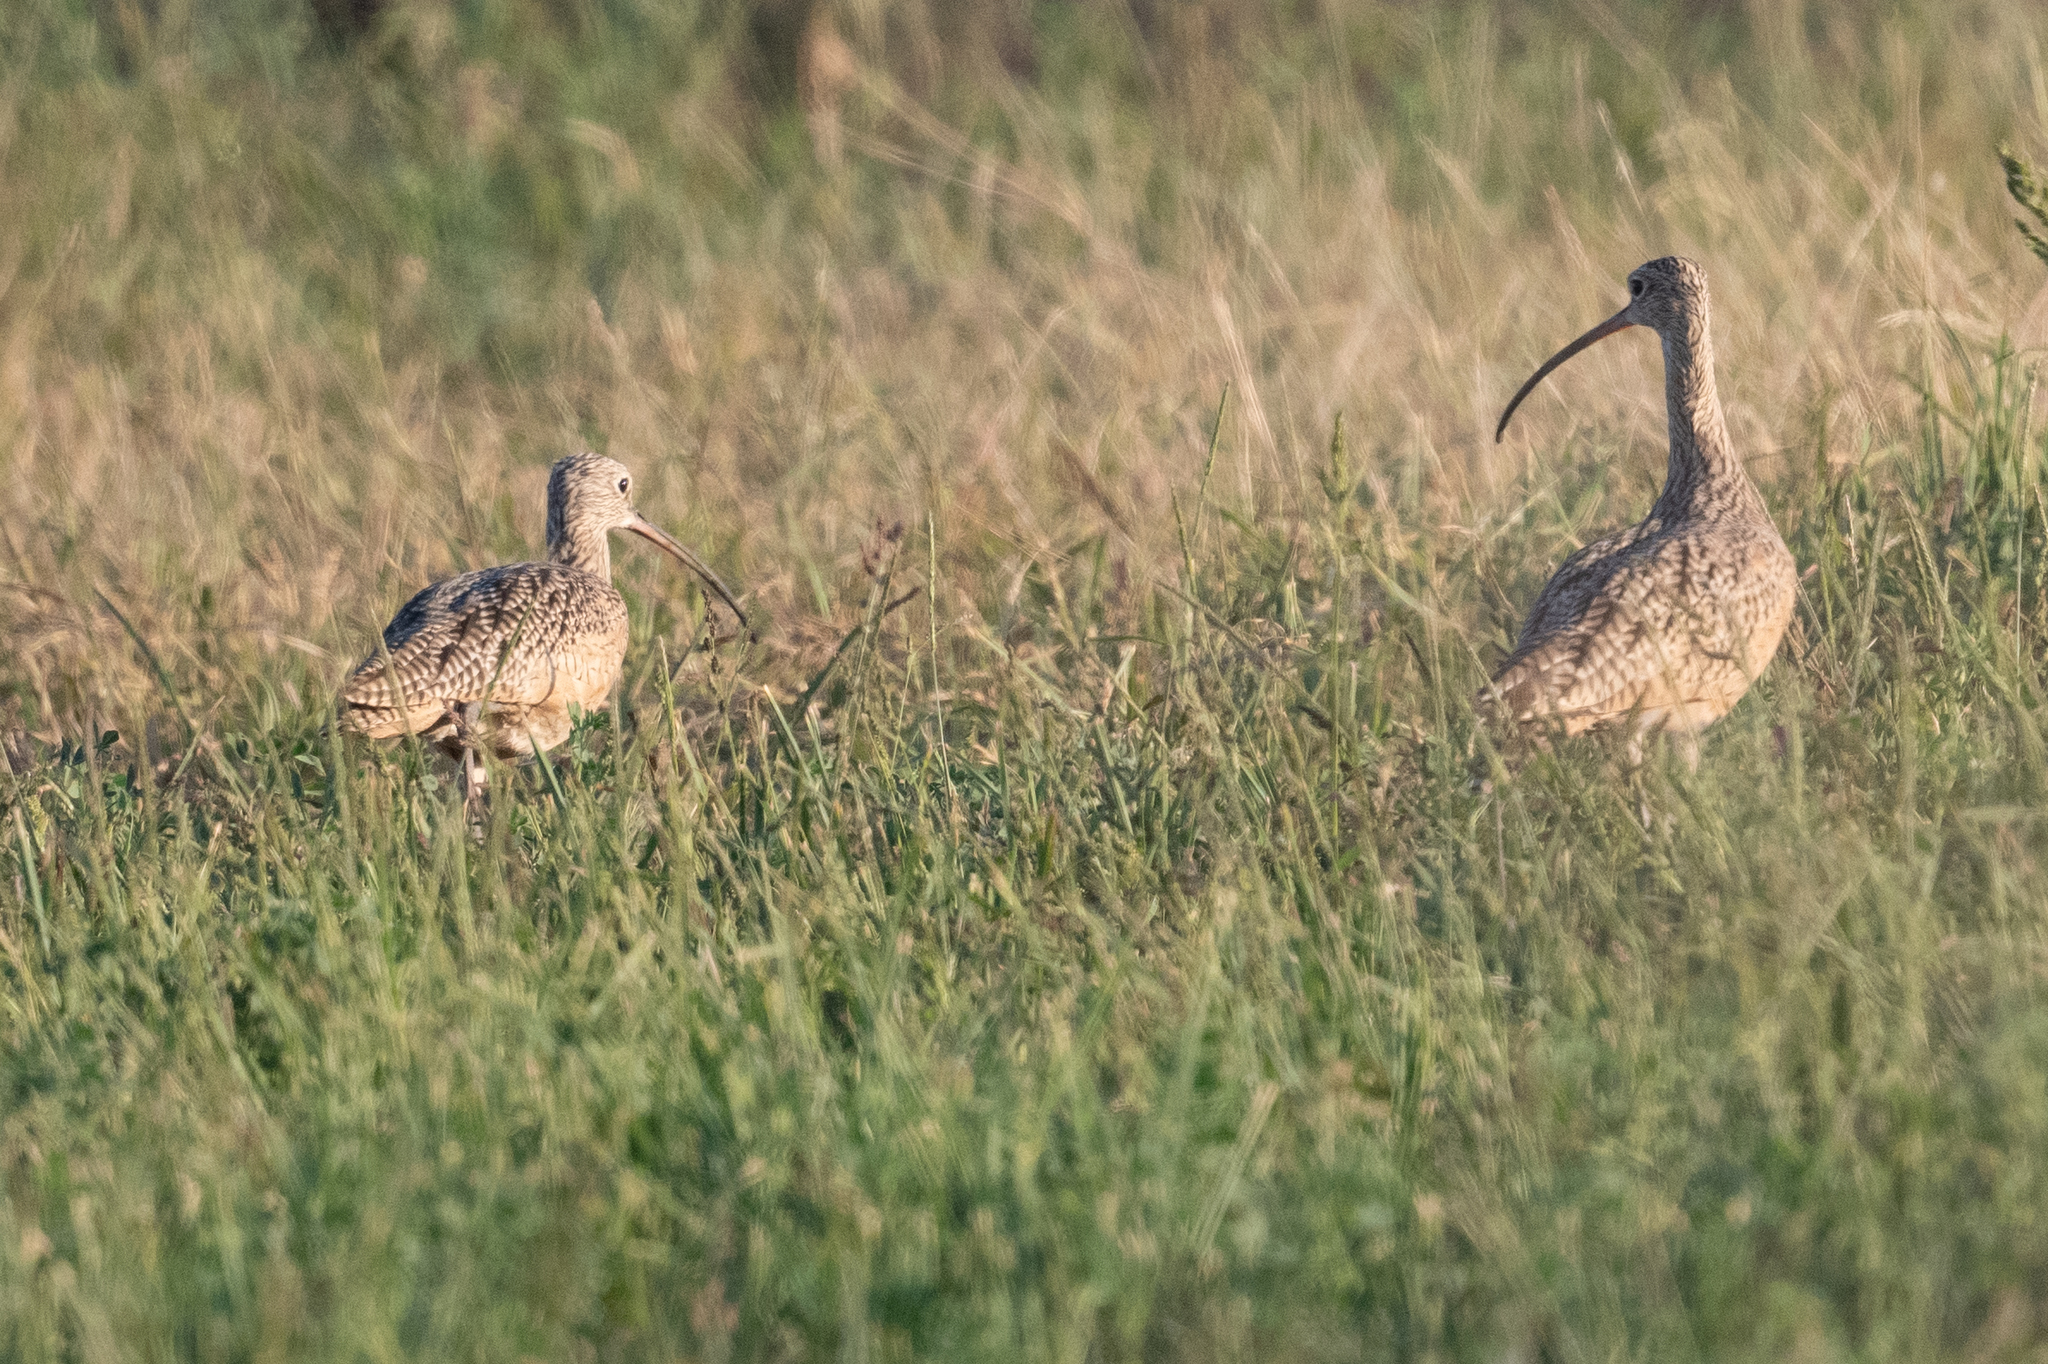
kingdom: Animalia
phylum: Chordata
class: Aves
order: Charadriiformes
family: Scolopacidae
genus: Numenius
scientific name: Numenius americanus
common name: Long-billed curlew
